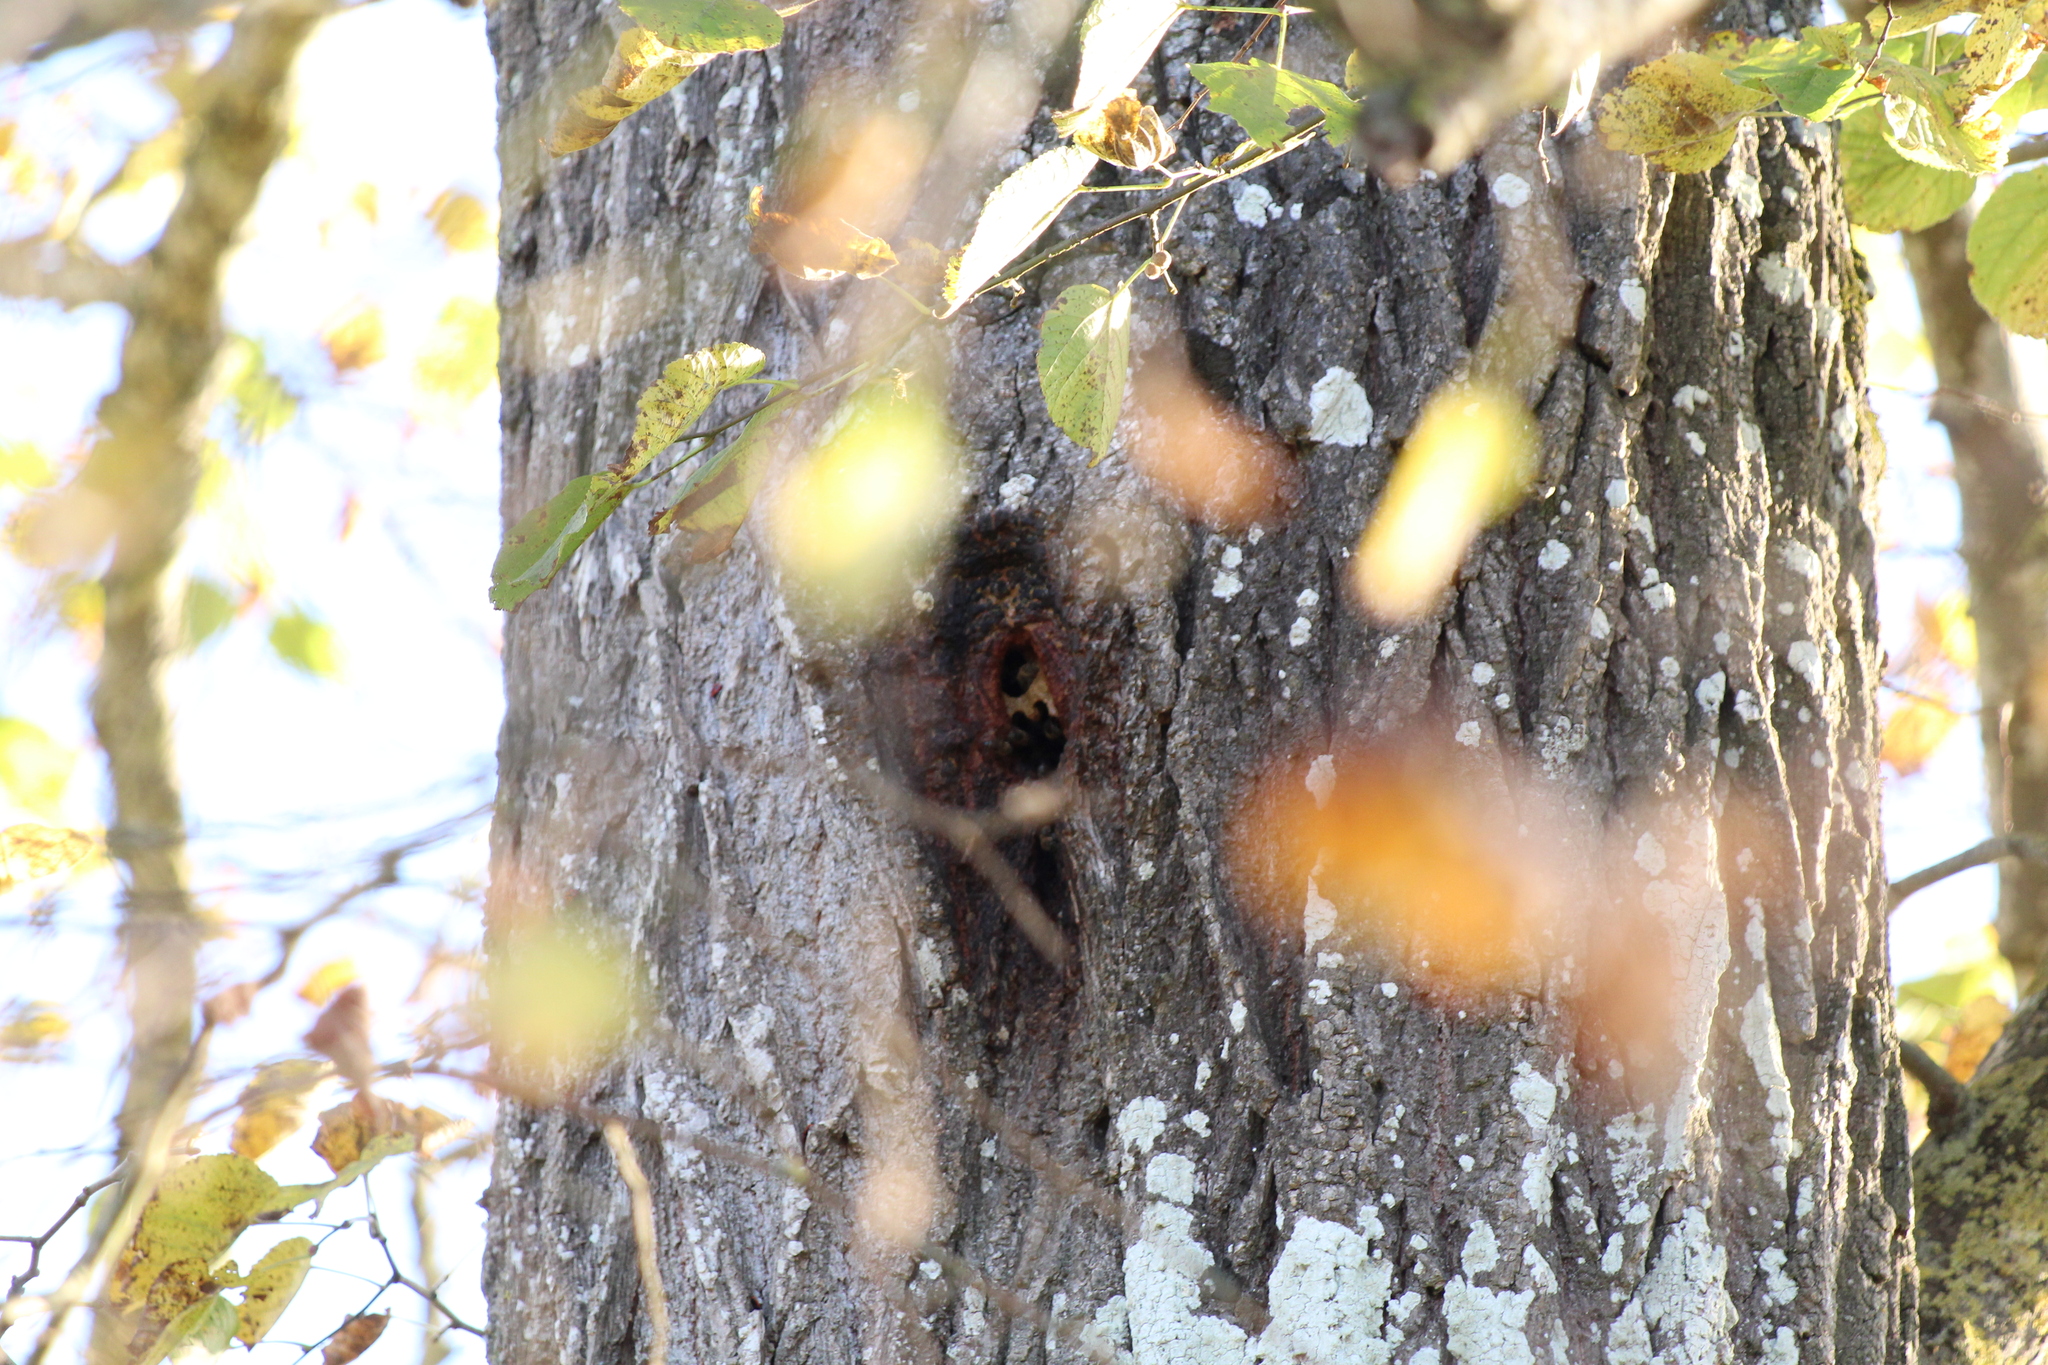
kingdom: Animalia
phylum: Arthropoda
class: Insecta
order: Hymenoptera
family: Apidae
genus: Apis
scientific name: Apis mellifera
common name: Honey bee
